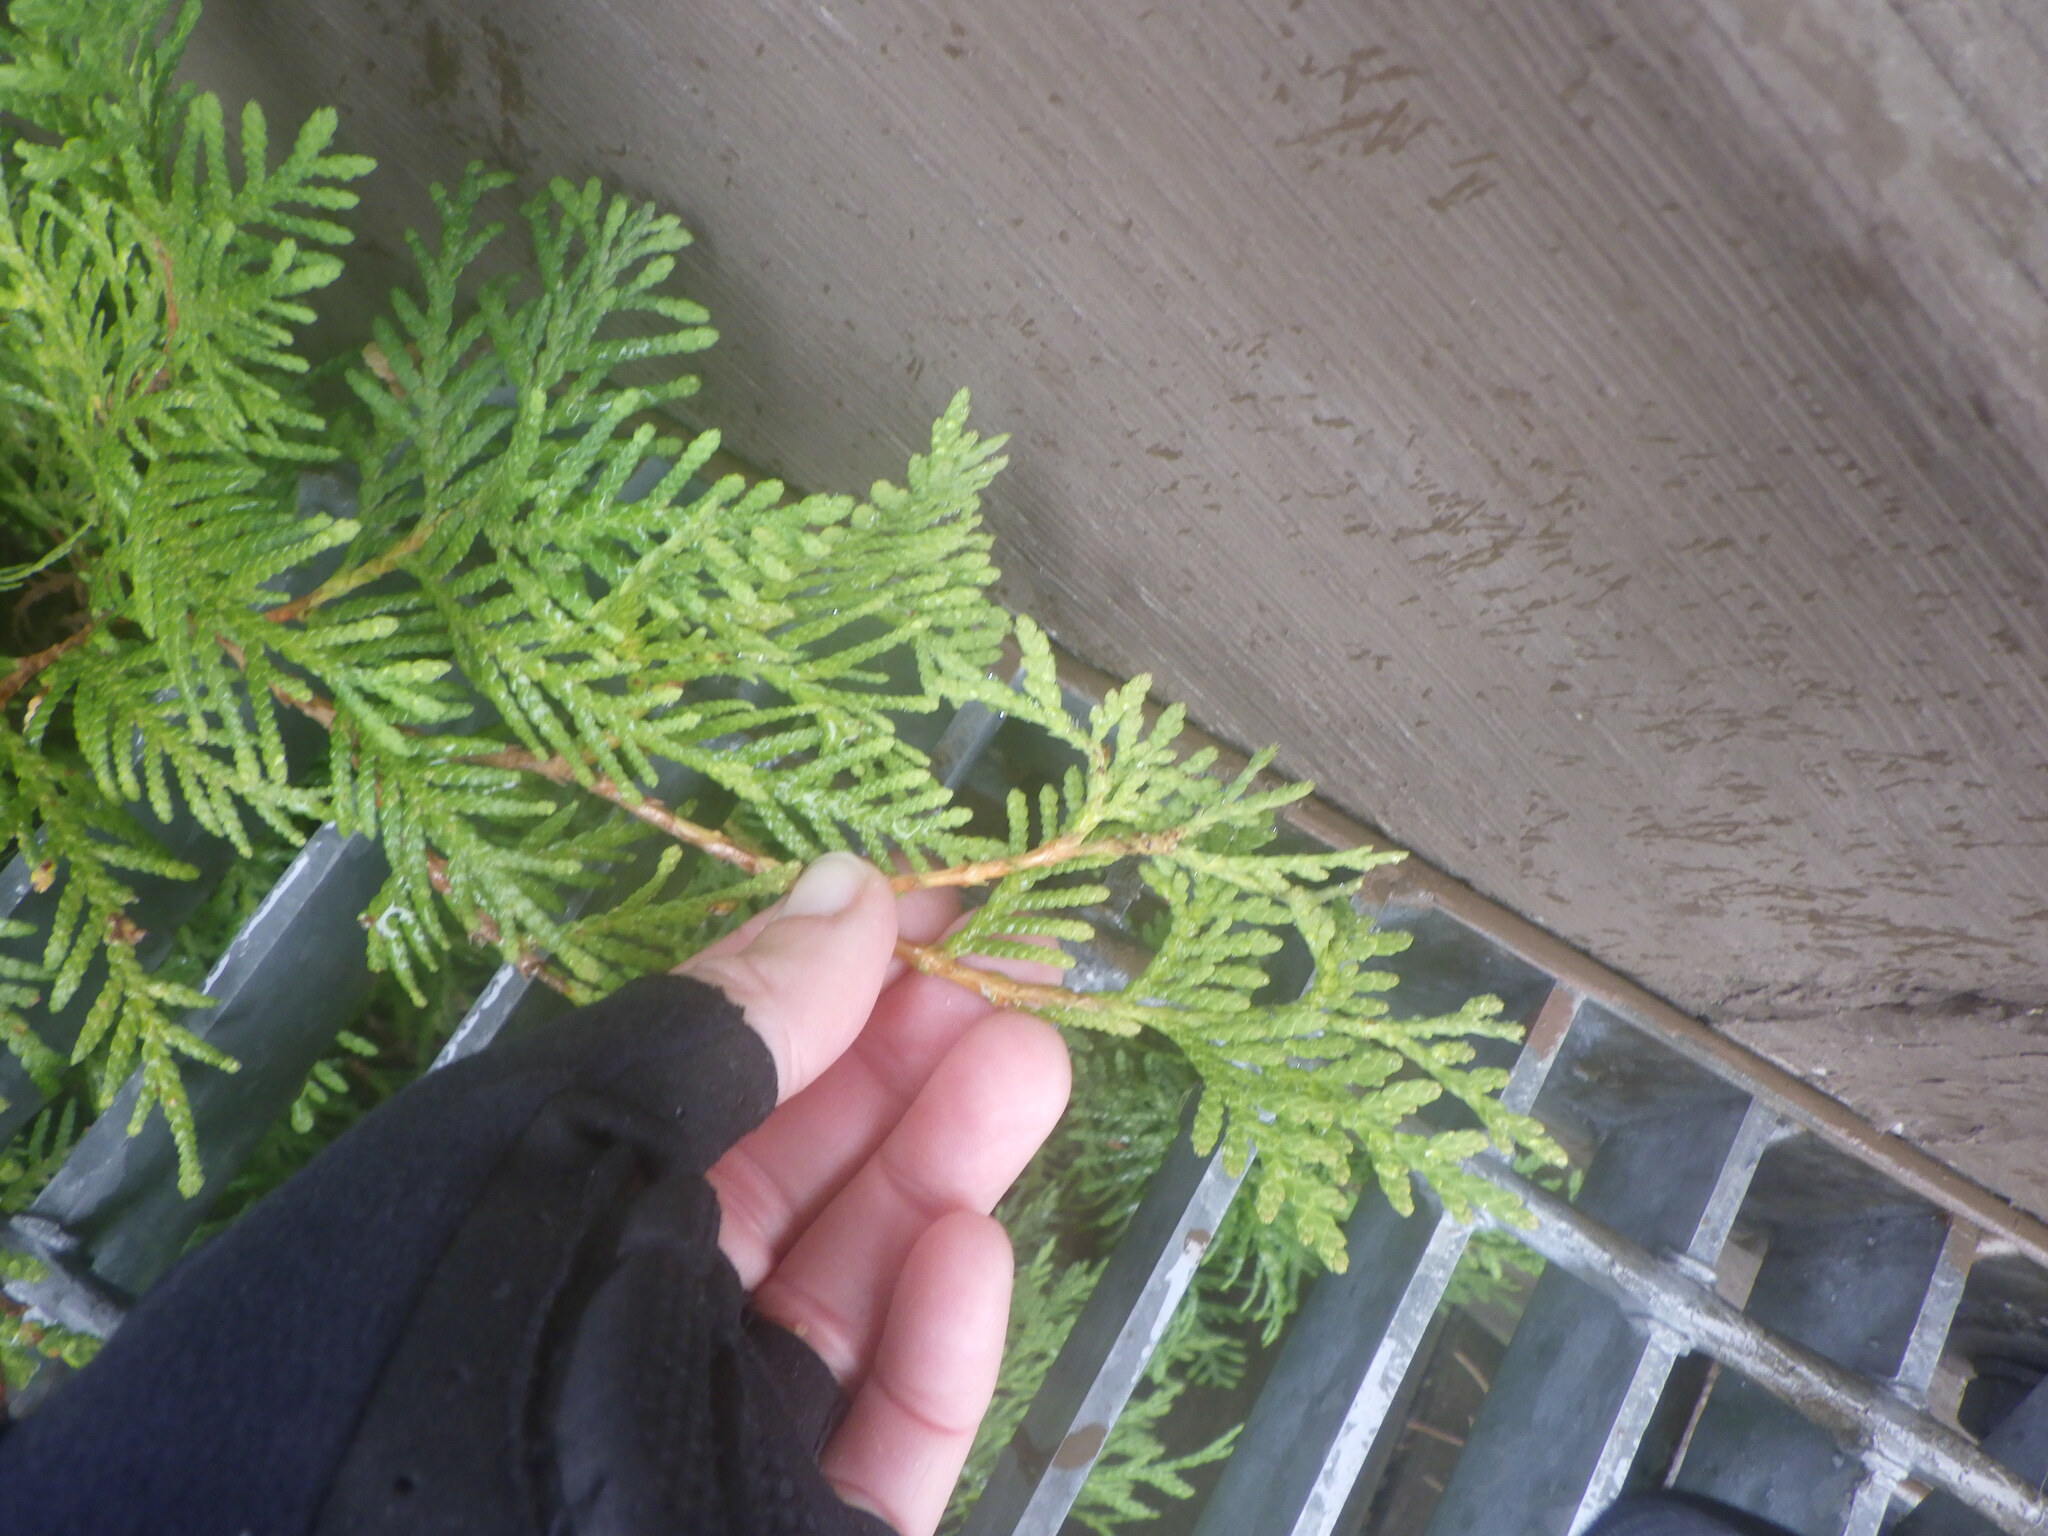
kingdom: Plantae
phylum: Tracheophyta
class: Pinopsida
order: Pinales
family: Cupressaceae
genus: Thuja
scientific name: Thuja occidentalis
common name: Northern white-cedar
